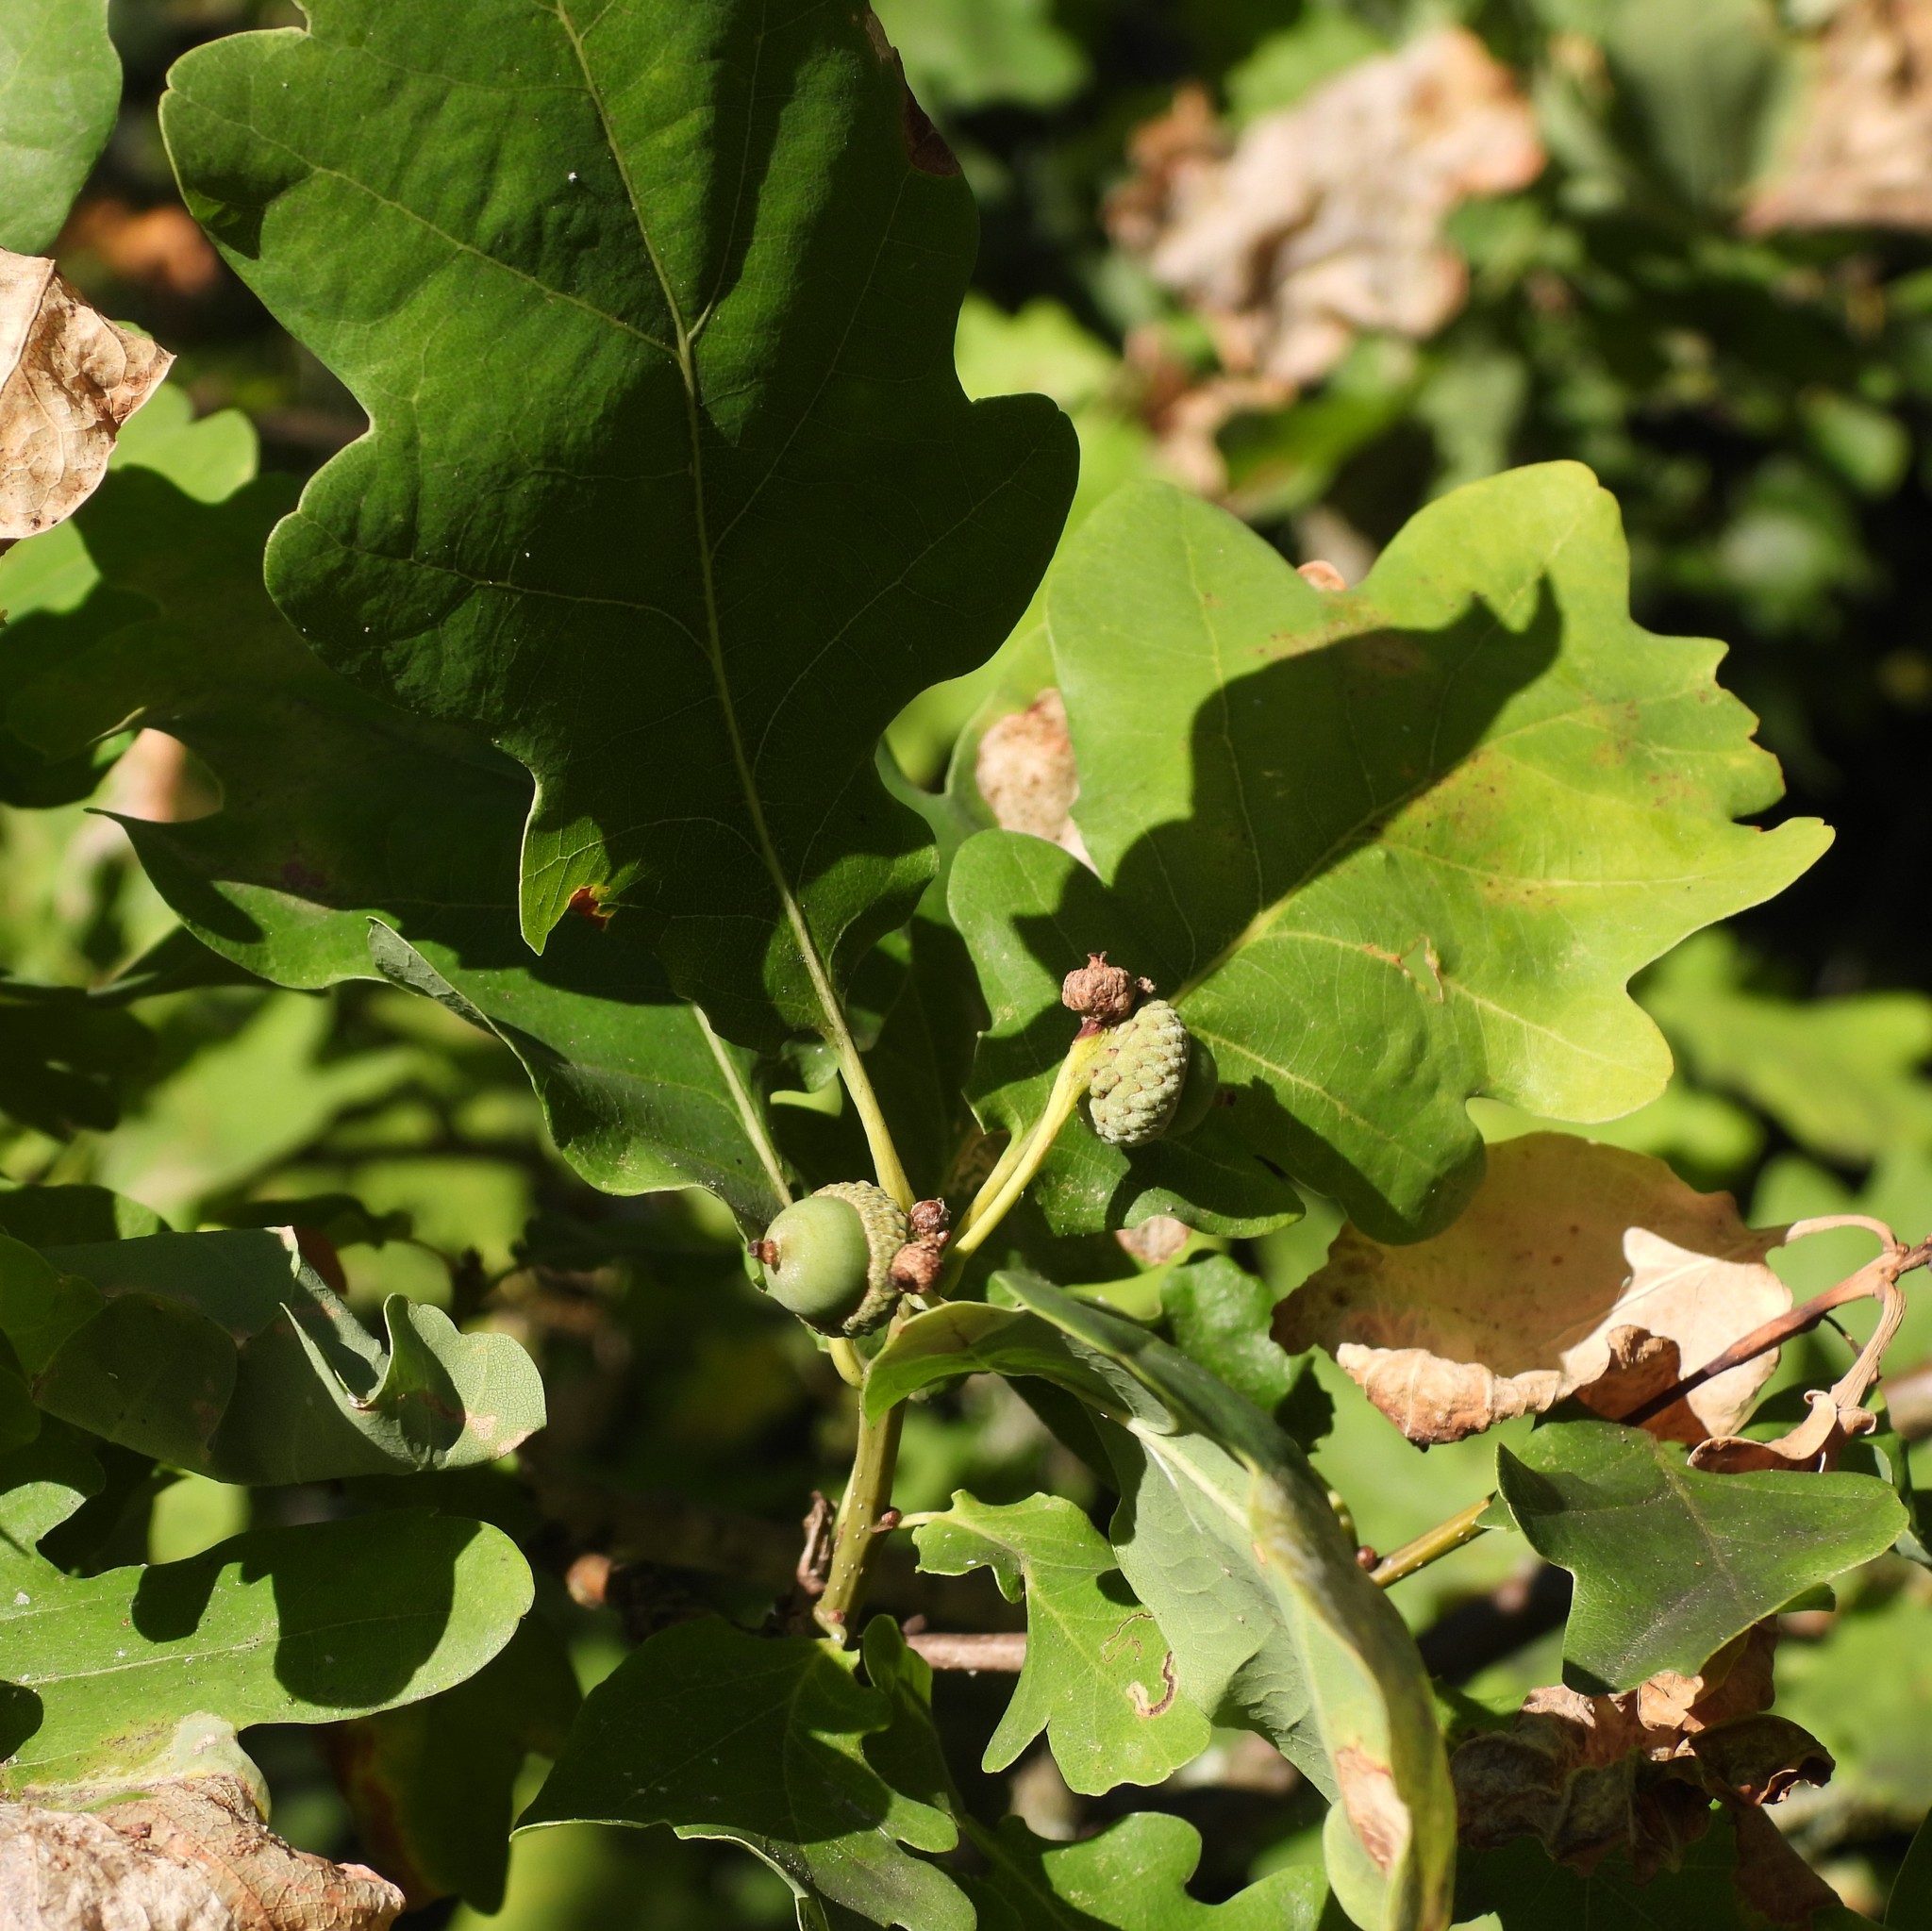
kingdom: Plantae
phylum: Tracheophyta
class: Magnoliopsida
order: Fagales
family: Fagaceae
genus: Quercus
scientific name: Quercus robur
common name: Pedunculate oak
